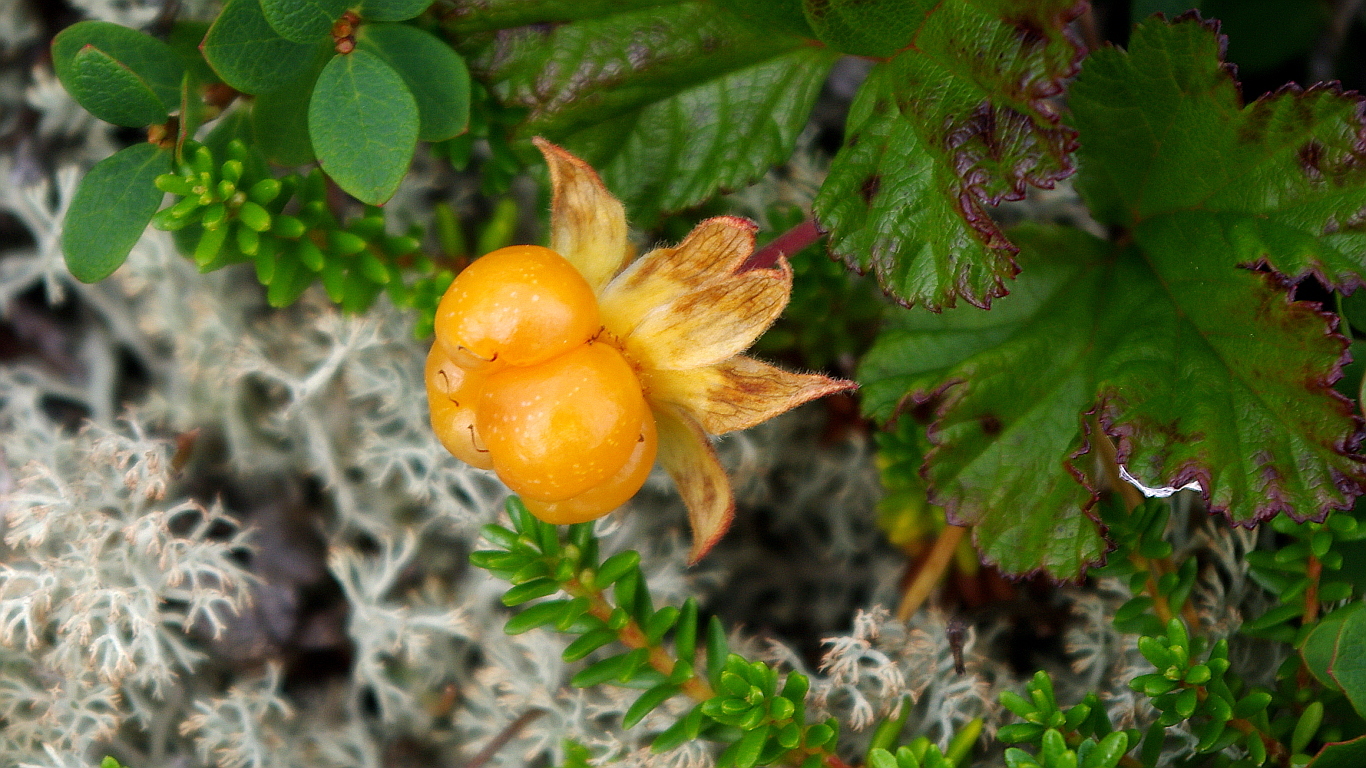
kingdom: Plantae
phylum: Tracheophyta
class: Magnoliopsida
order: Rosales
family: Rosaceae
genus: Rubus
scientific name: Rubus chamaemorus
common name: Cloudberry
